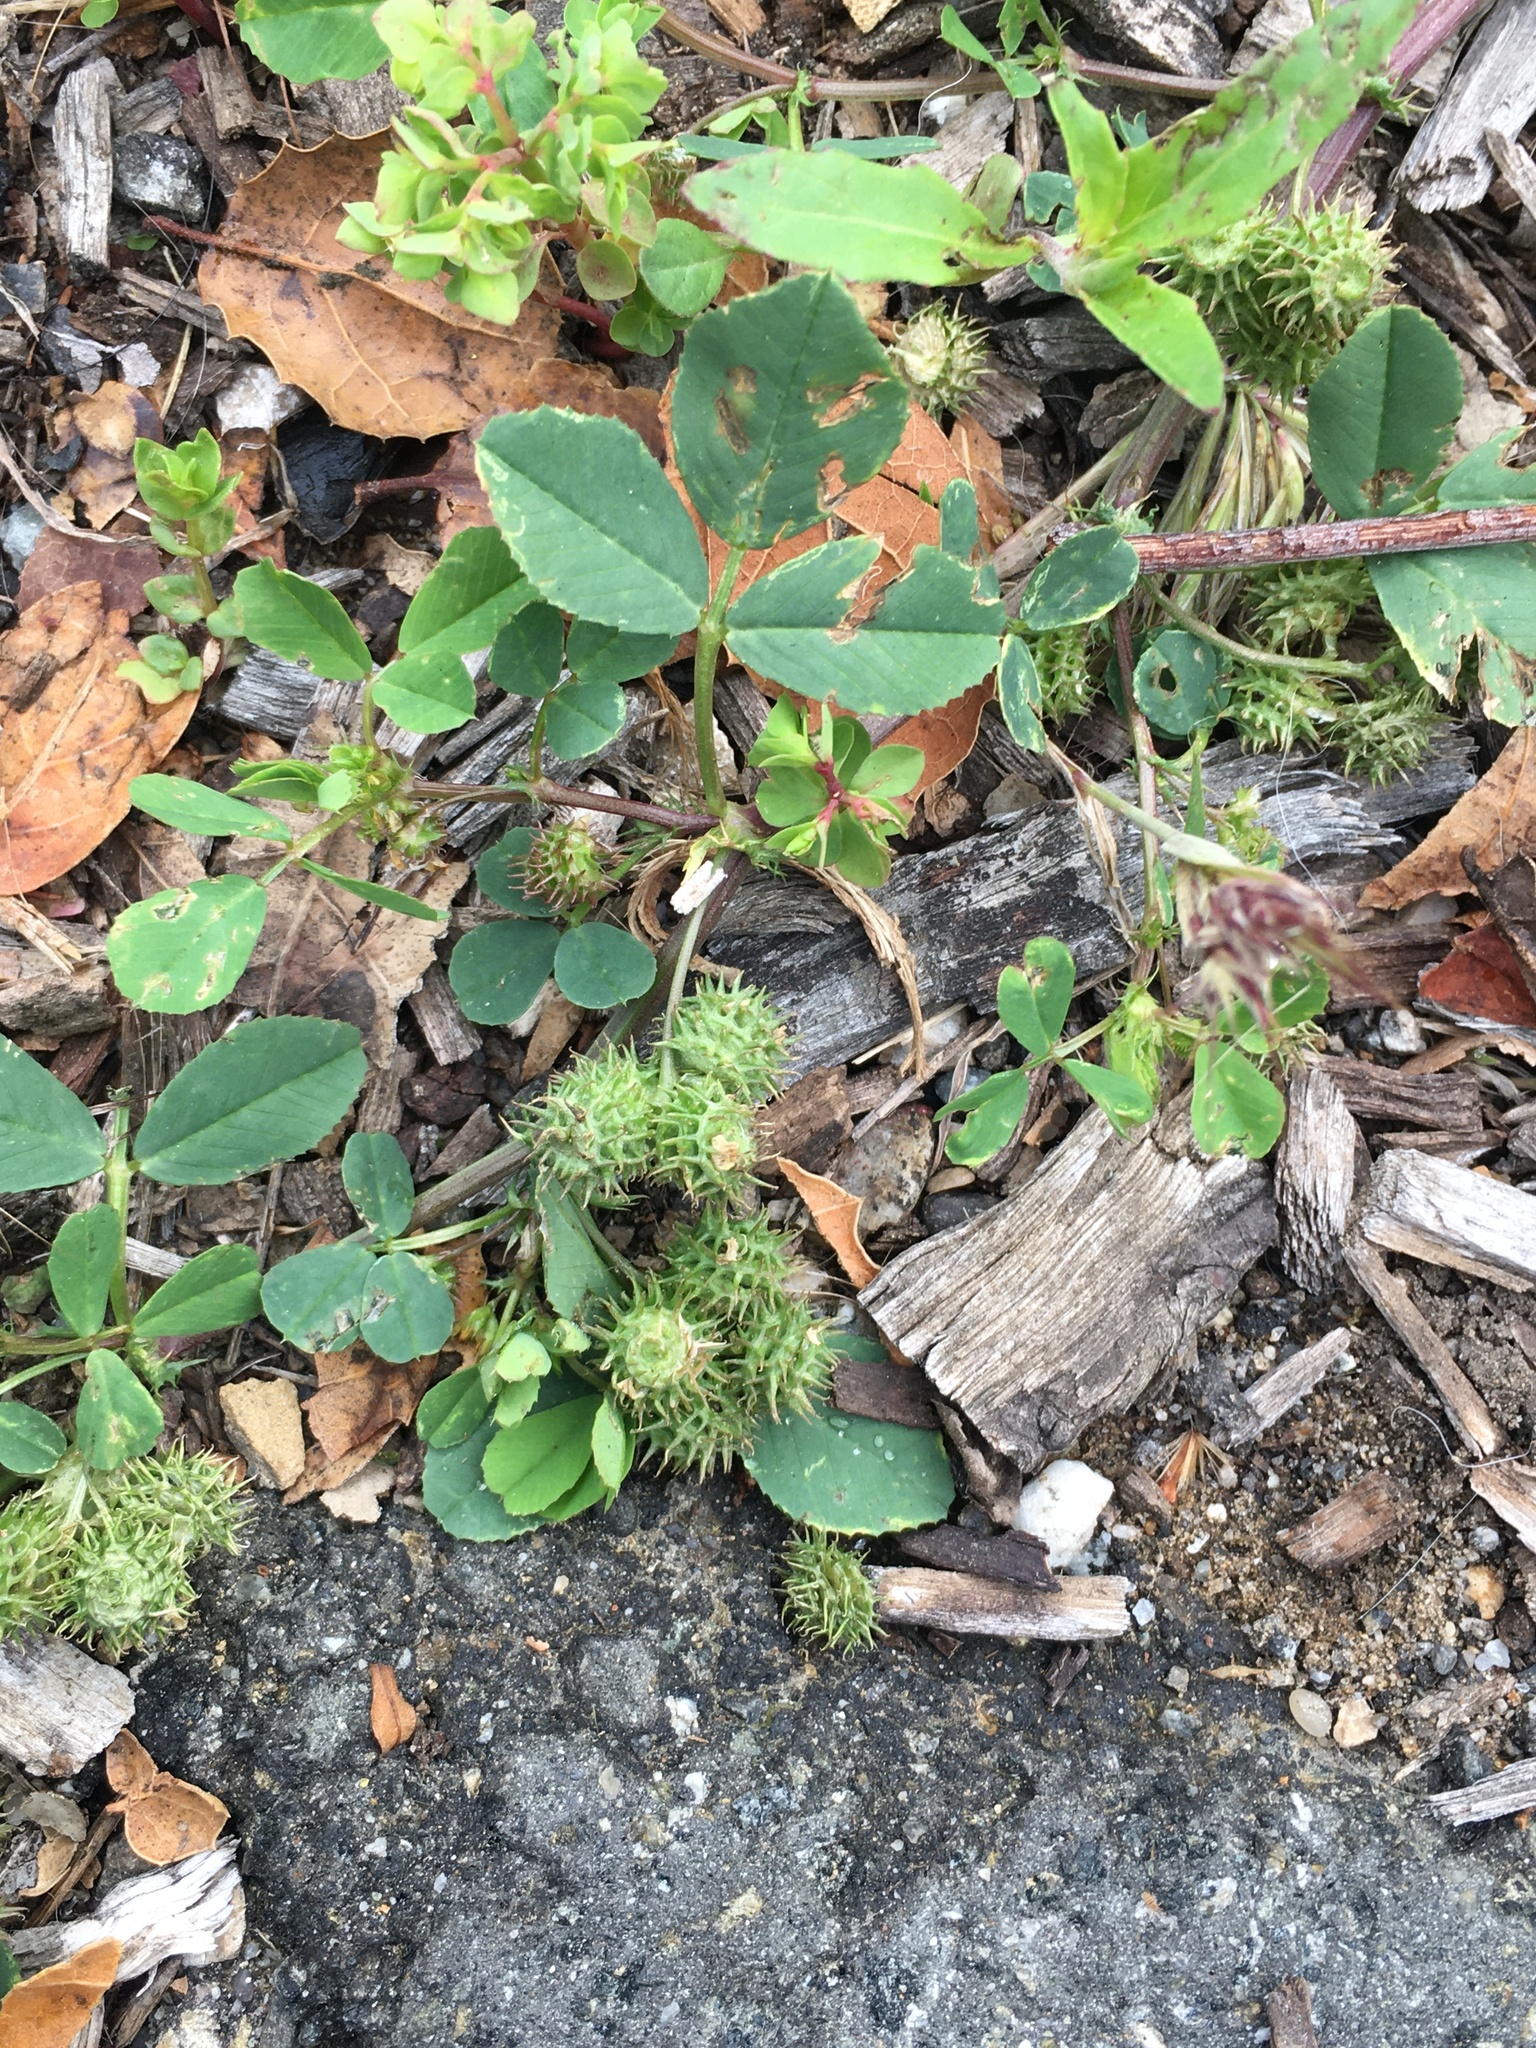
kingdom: Plantae
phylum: Tracheophyta
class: Magnoliopsida
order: Fabales
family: Fabaceae
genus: Medicago
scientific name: Medicago lupulina
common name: Black medick
